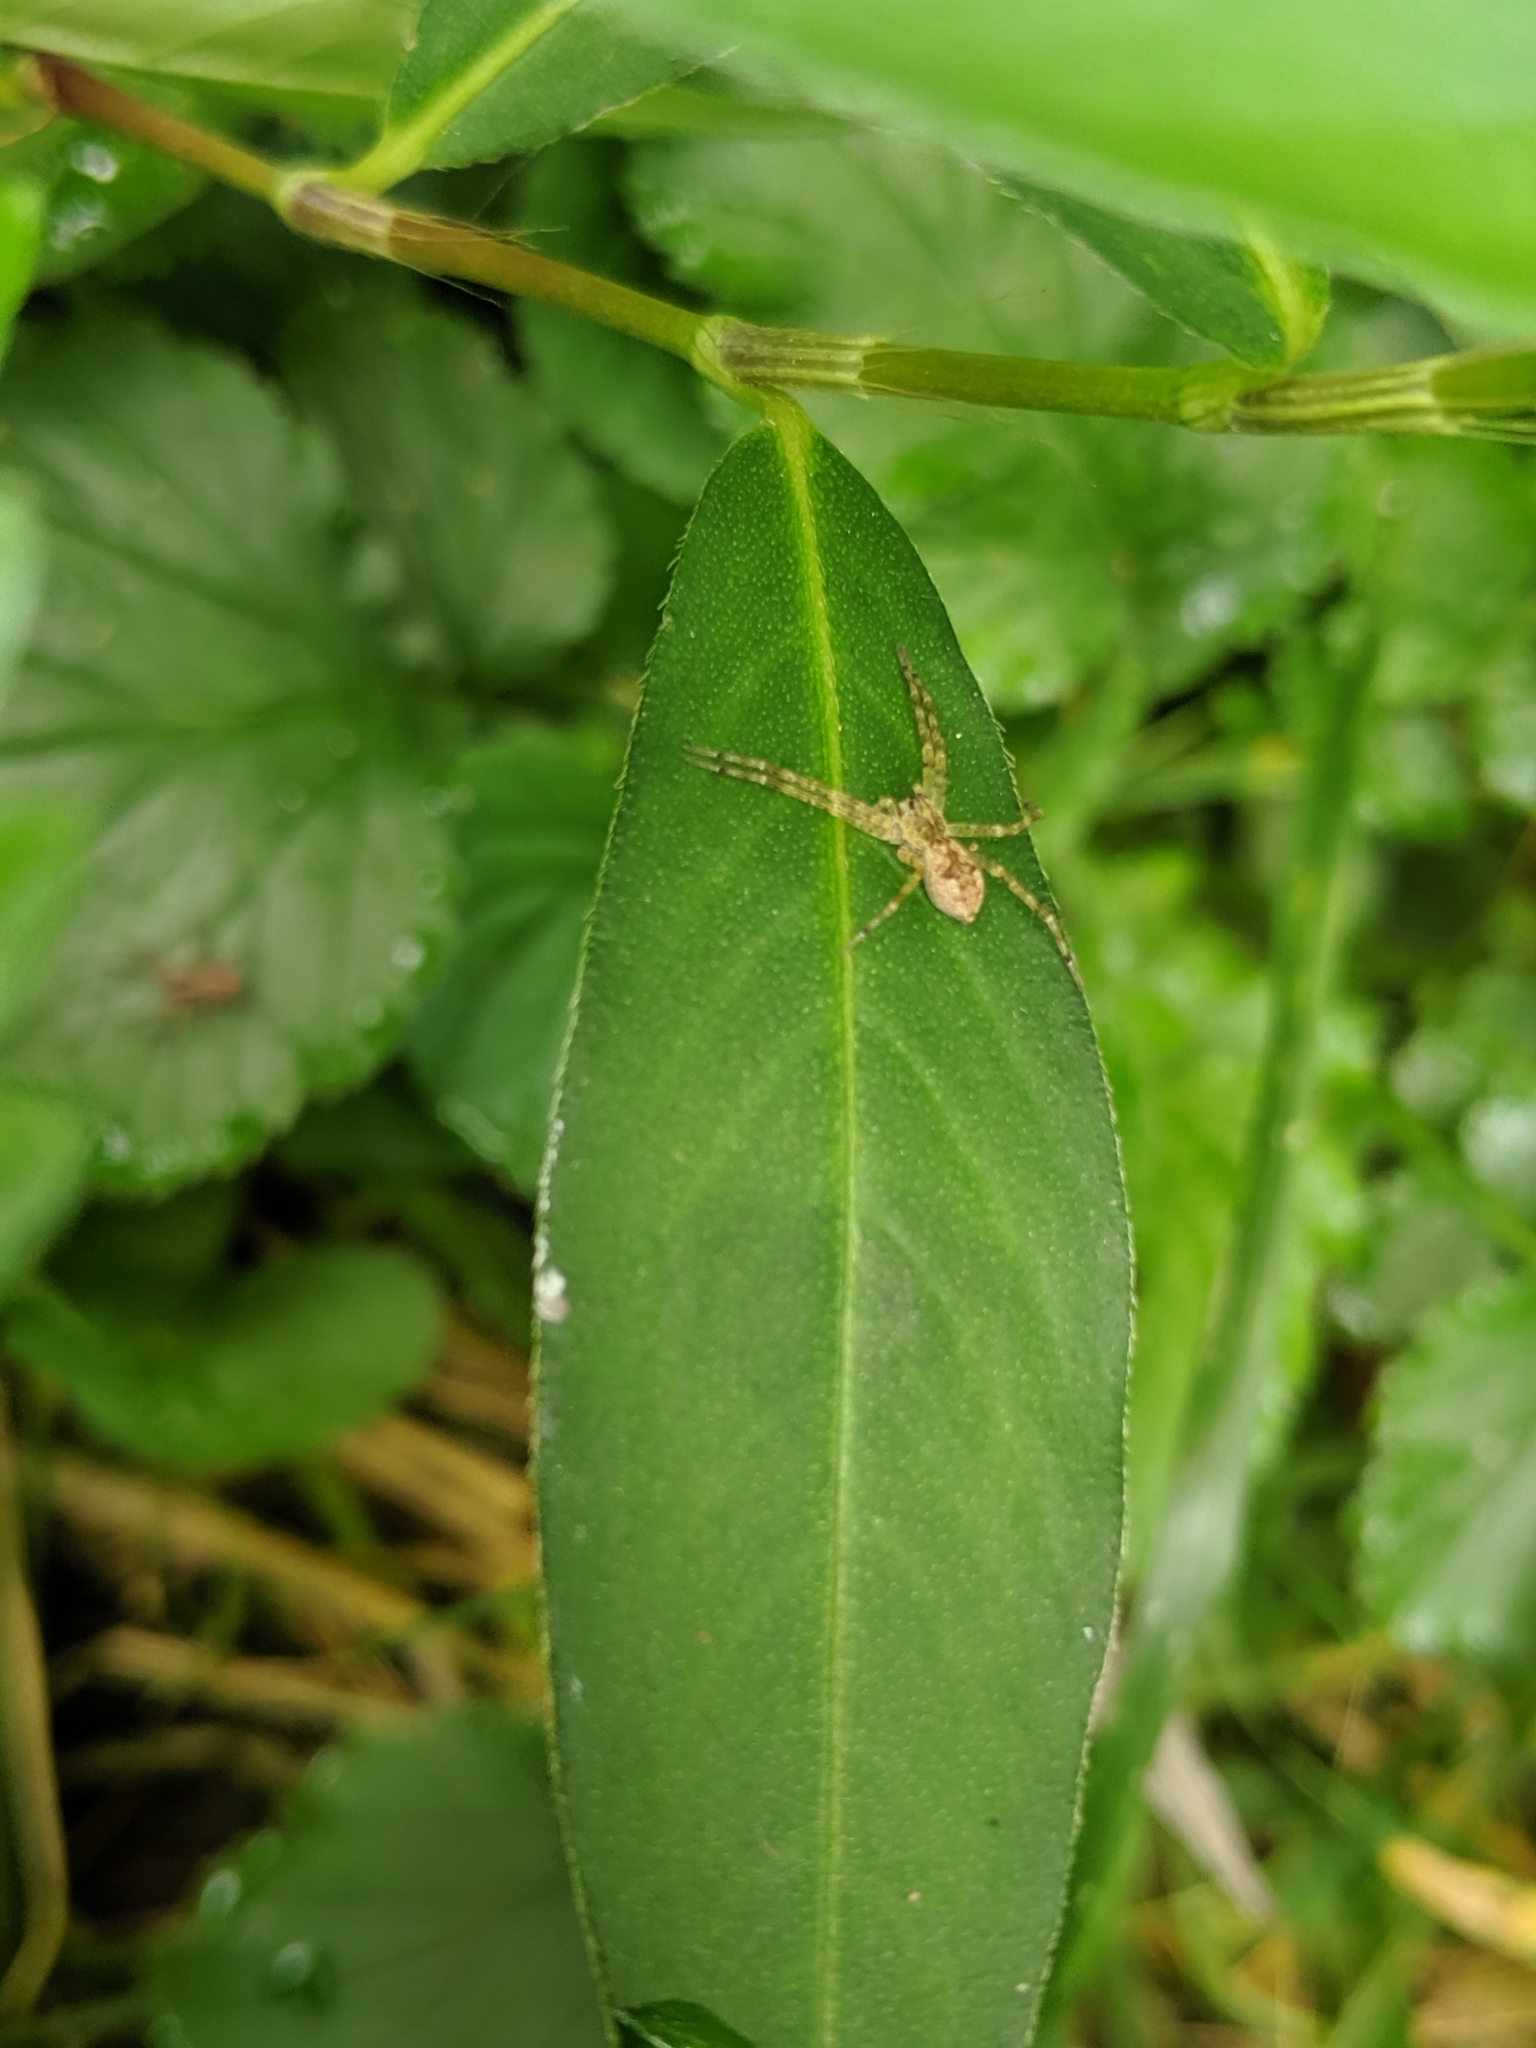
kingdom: Animalia
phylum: Arthropoda
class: Arachnida
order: Araneae
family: Pisauridae
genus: Pisaurina
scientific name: Pisaurina mira
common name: American nursery web spider
